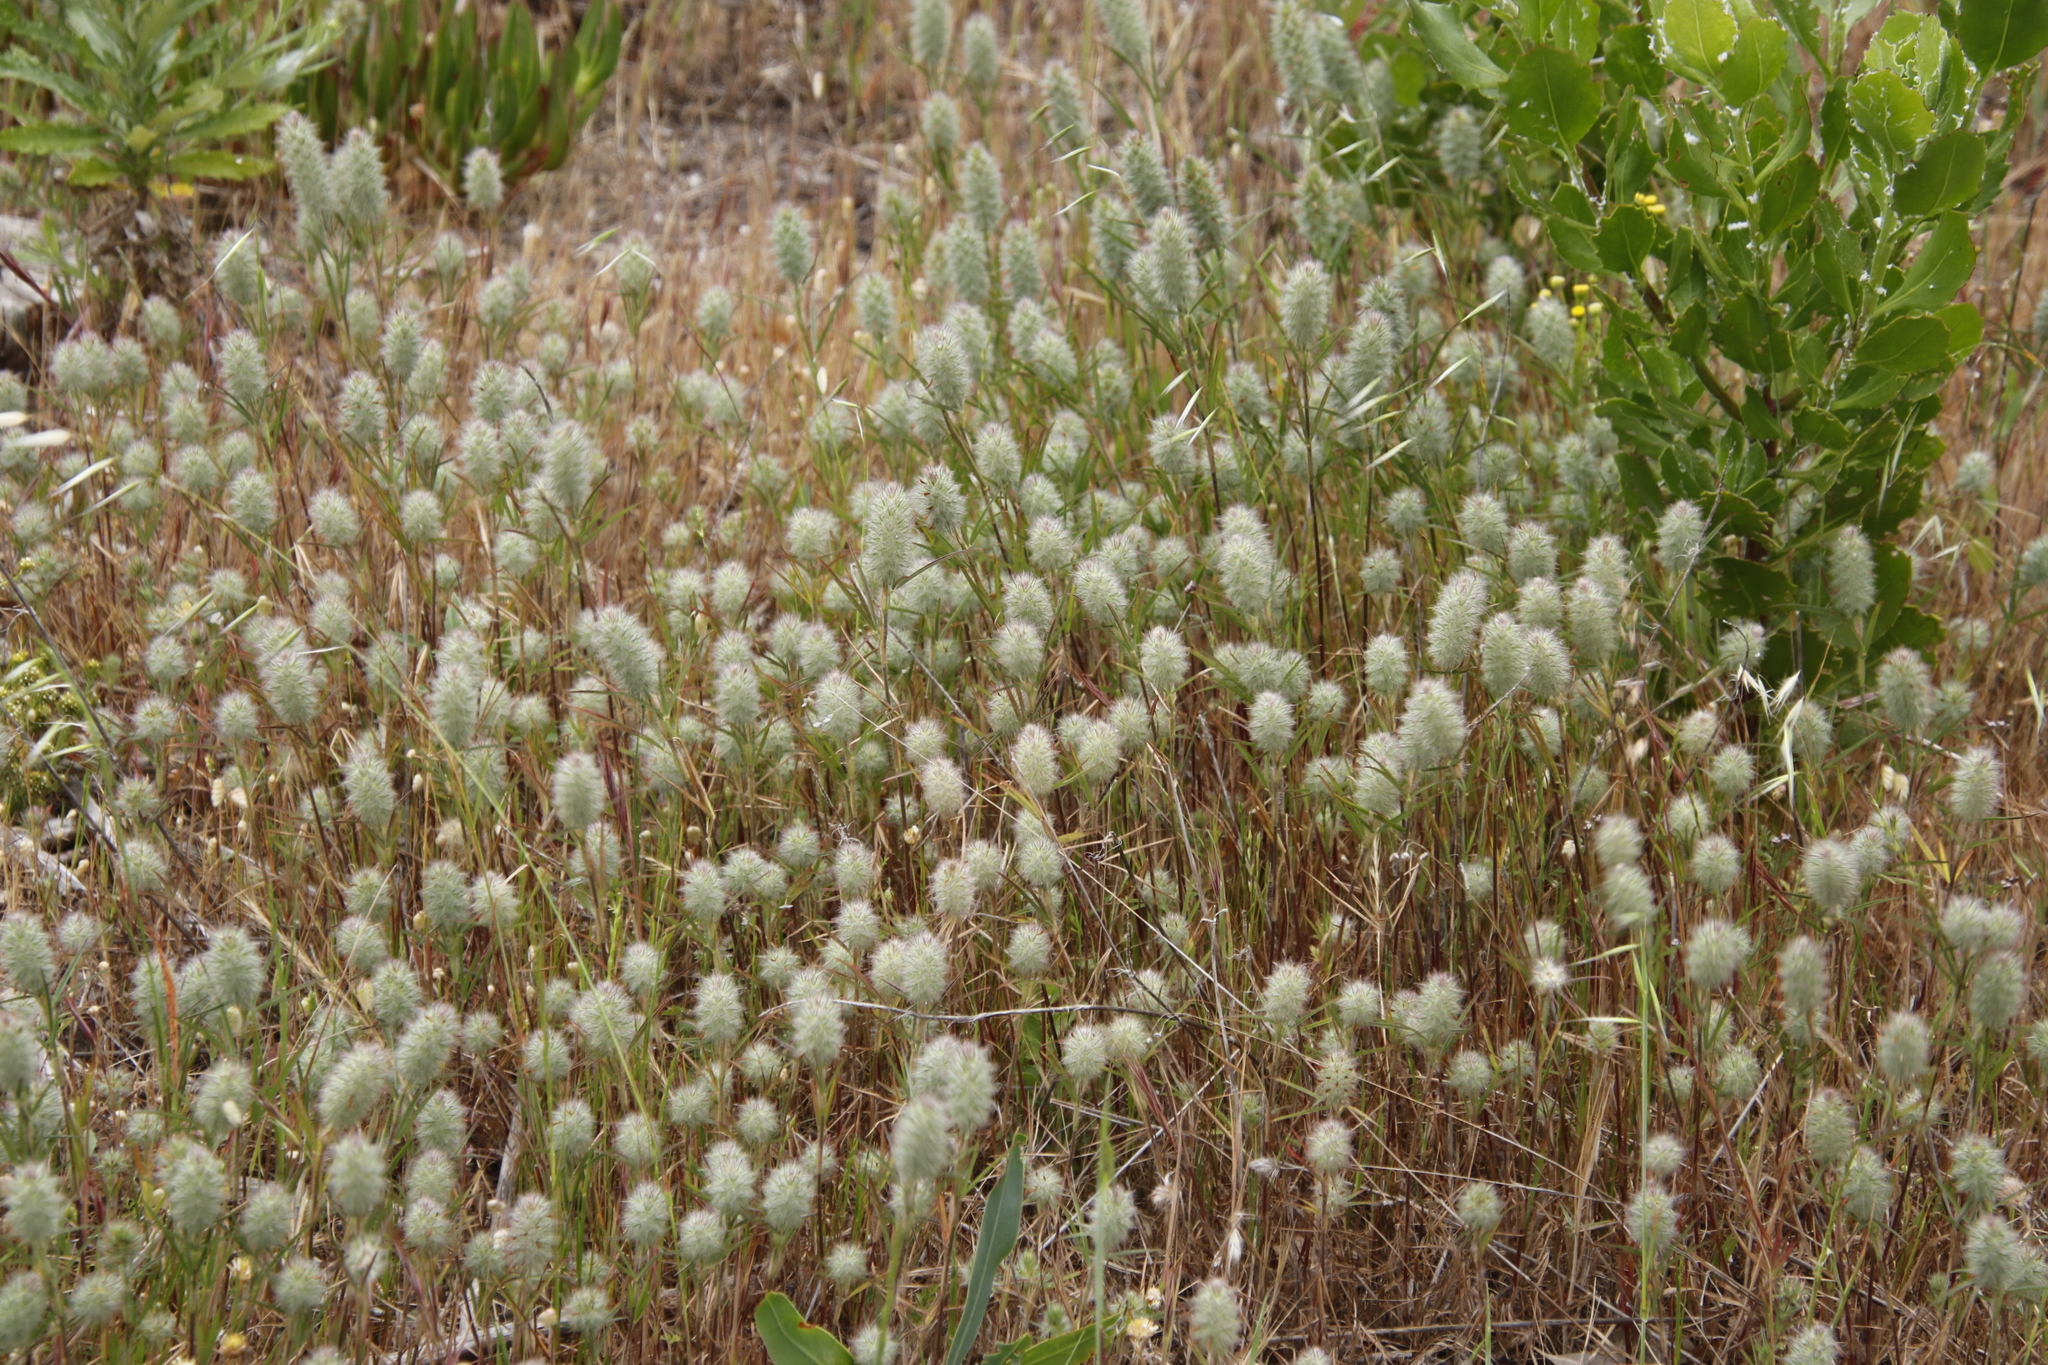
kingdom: Plantae
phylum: Tracheophyta
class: Magnoliopsida
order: Fabales
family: Fabaceae
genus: Trifolium
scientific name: Trifolium angustifolium
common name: Narrow clover
